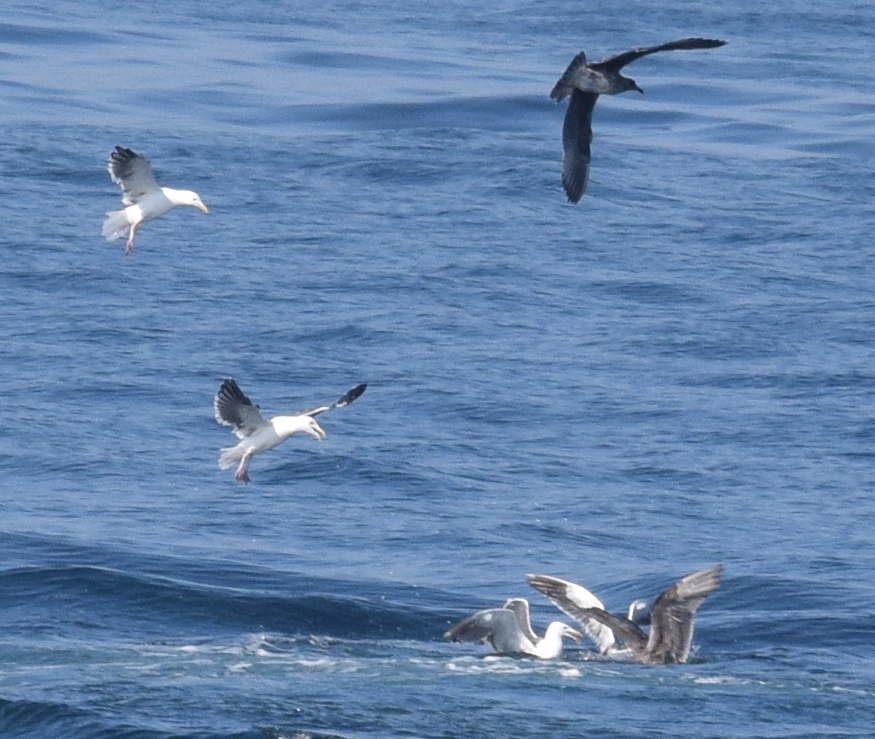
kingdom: Animalia
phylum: Chordata
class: Aves
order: Charadriiformes
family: Laridae
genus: Larus
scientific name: Larus occidentalis
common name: Western gull
